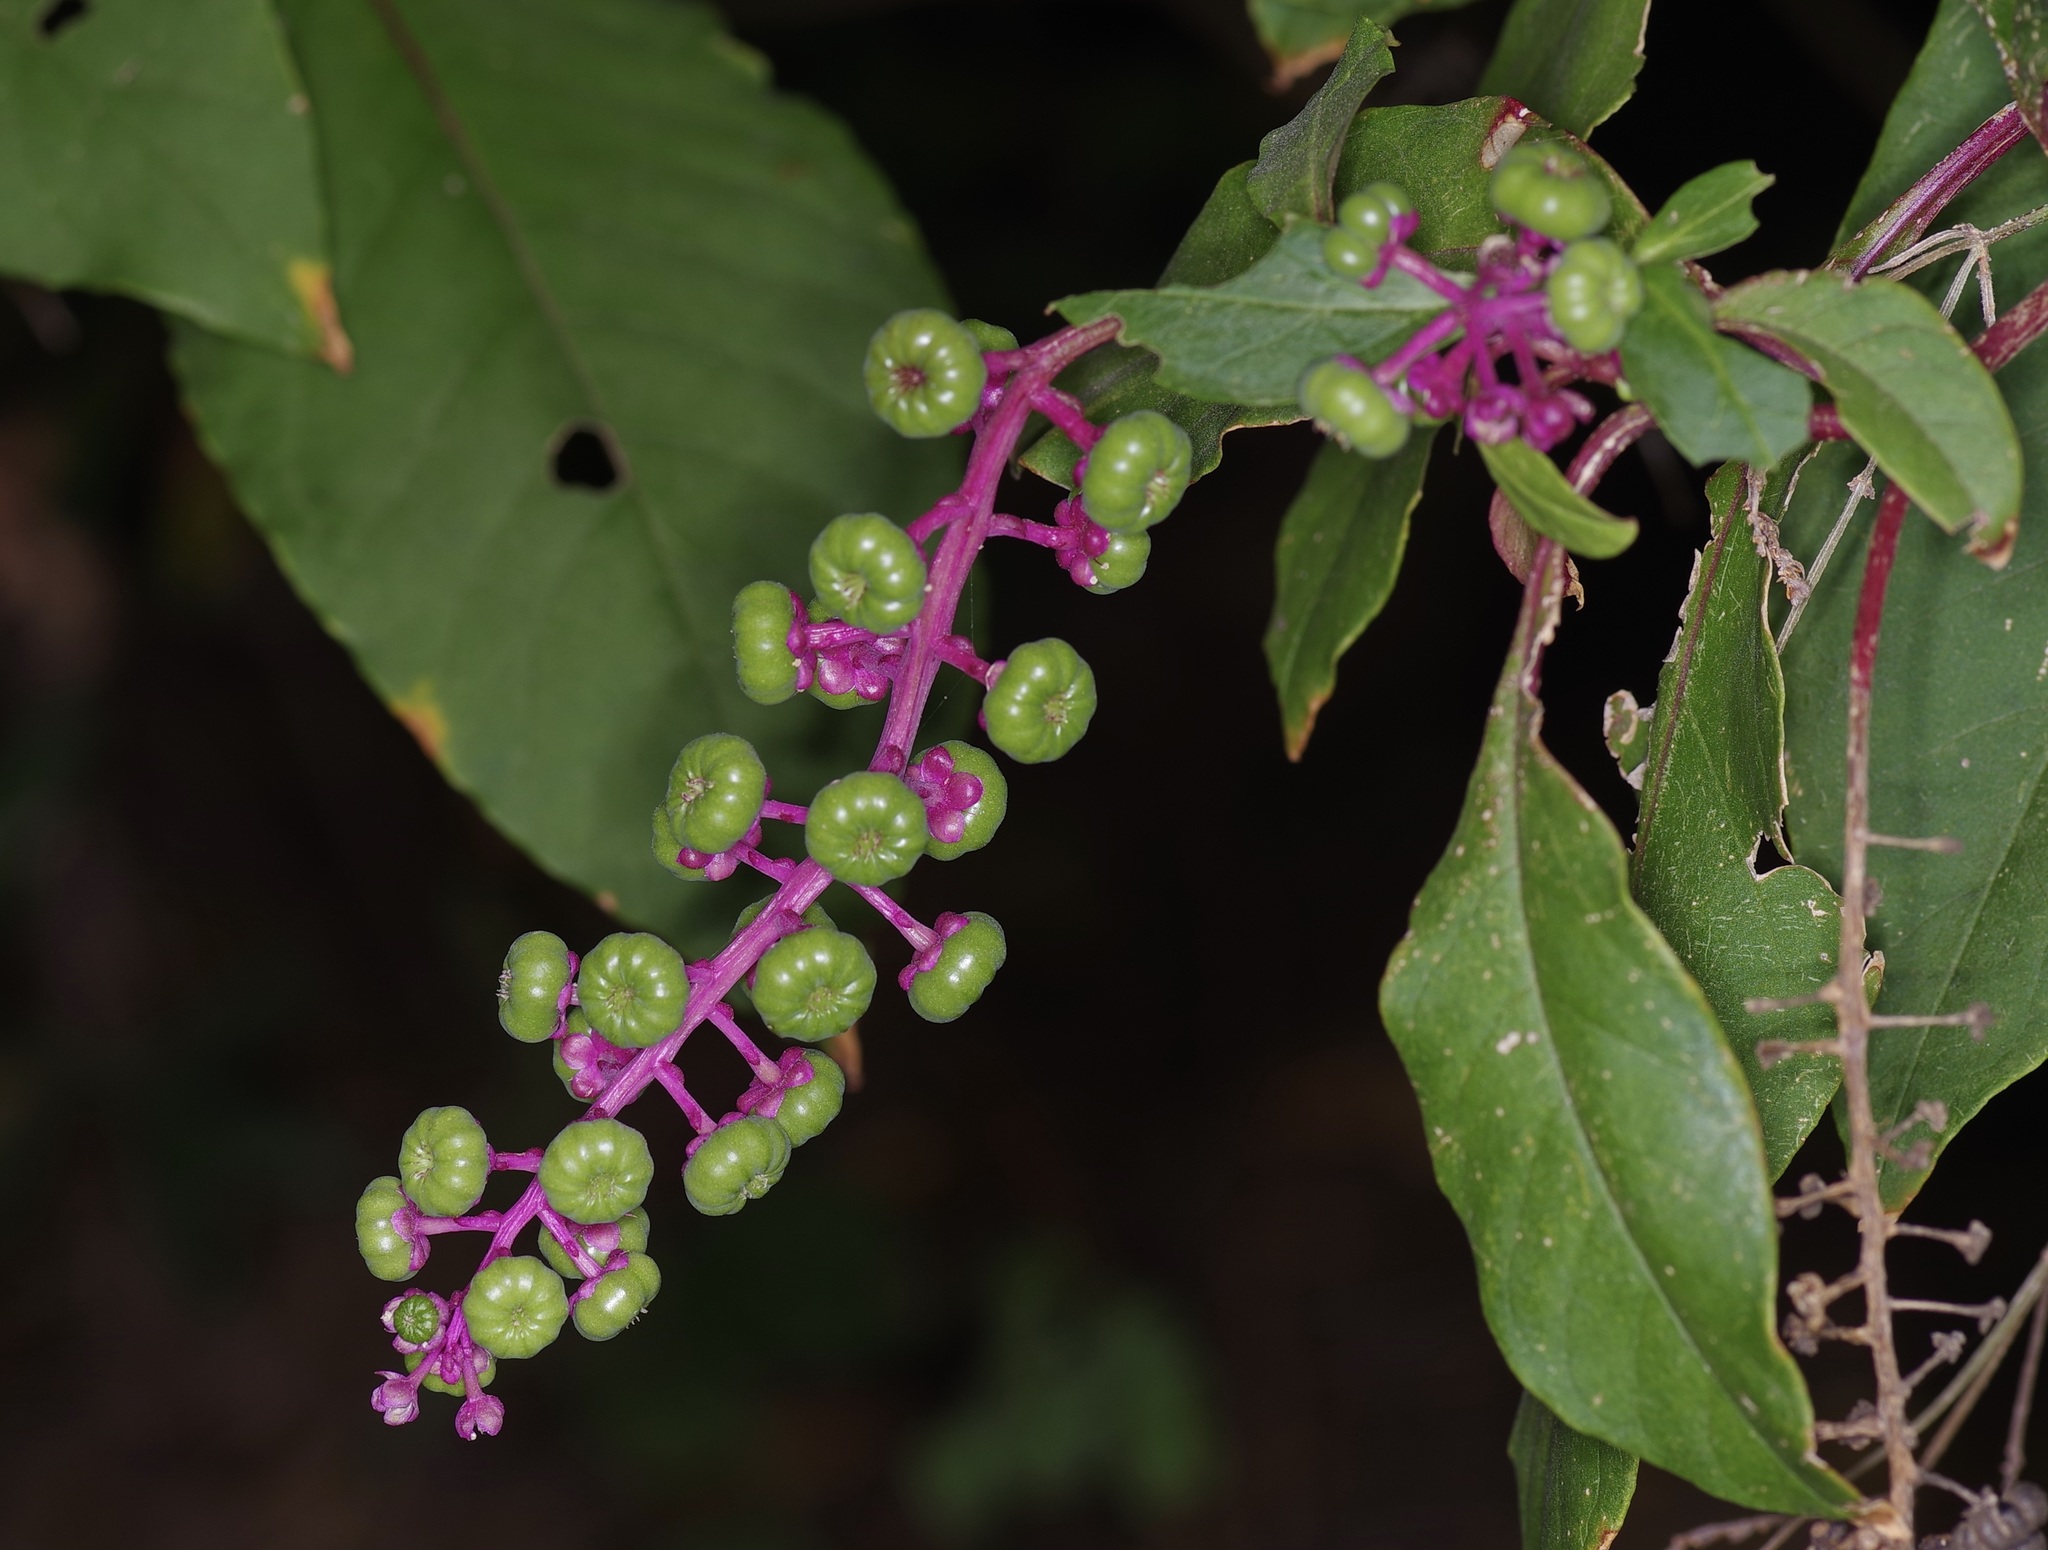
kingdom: Plantae
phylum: Tracheophyta
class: Magnoliopsida
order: Caryophyllales
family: Phytolaccaceae
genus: Phytolacca
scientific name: Phytolacca americana
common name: American pokeweed
